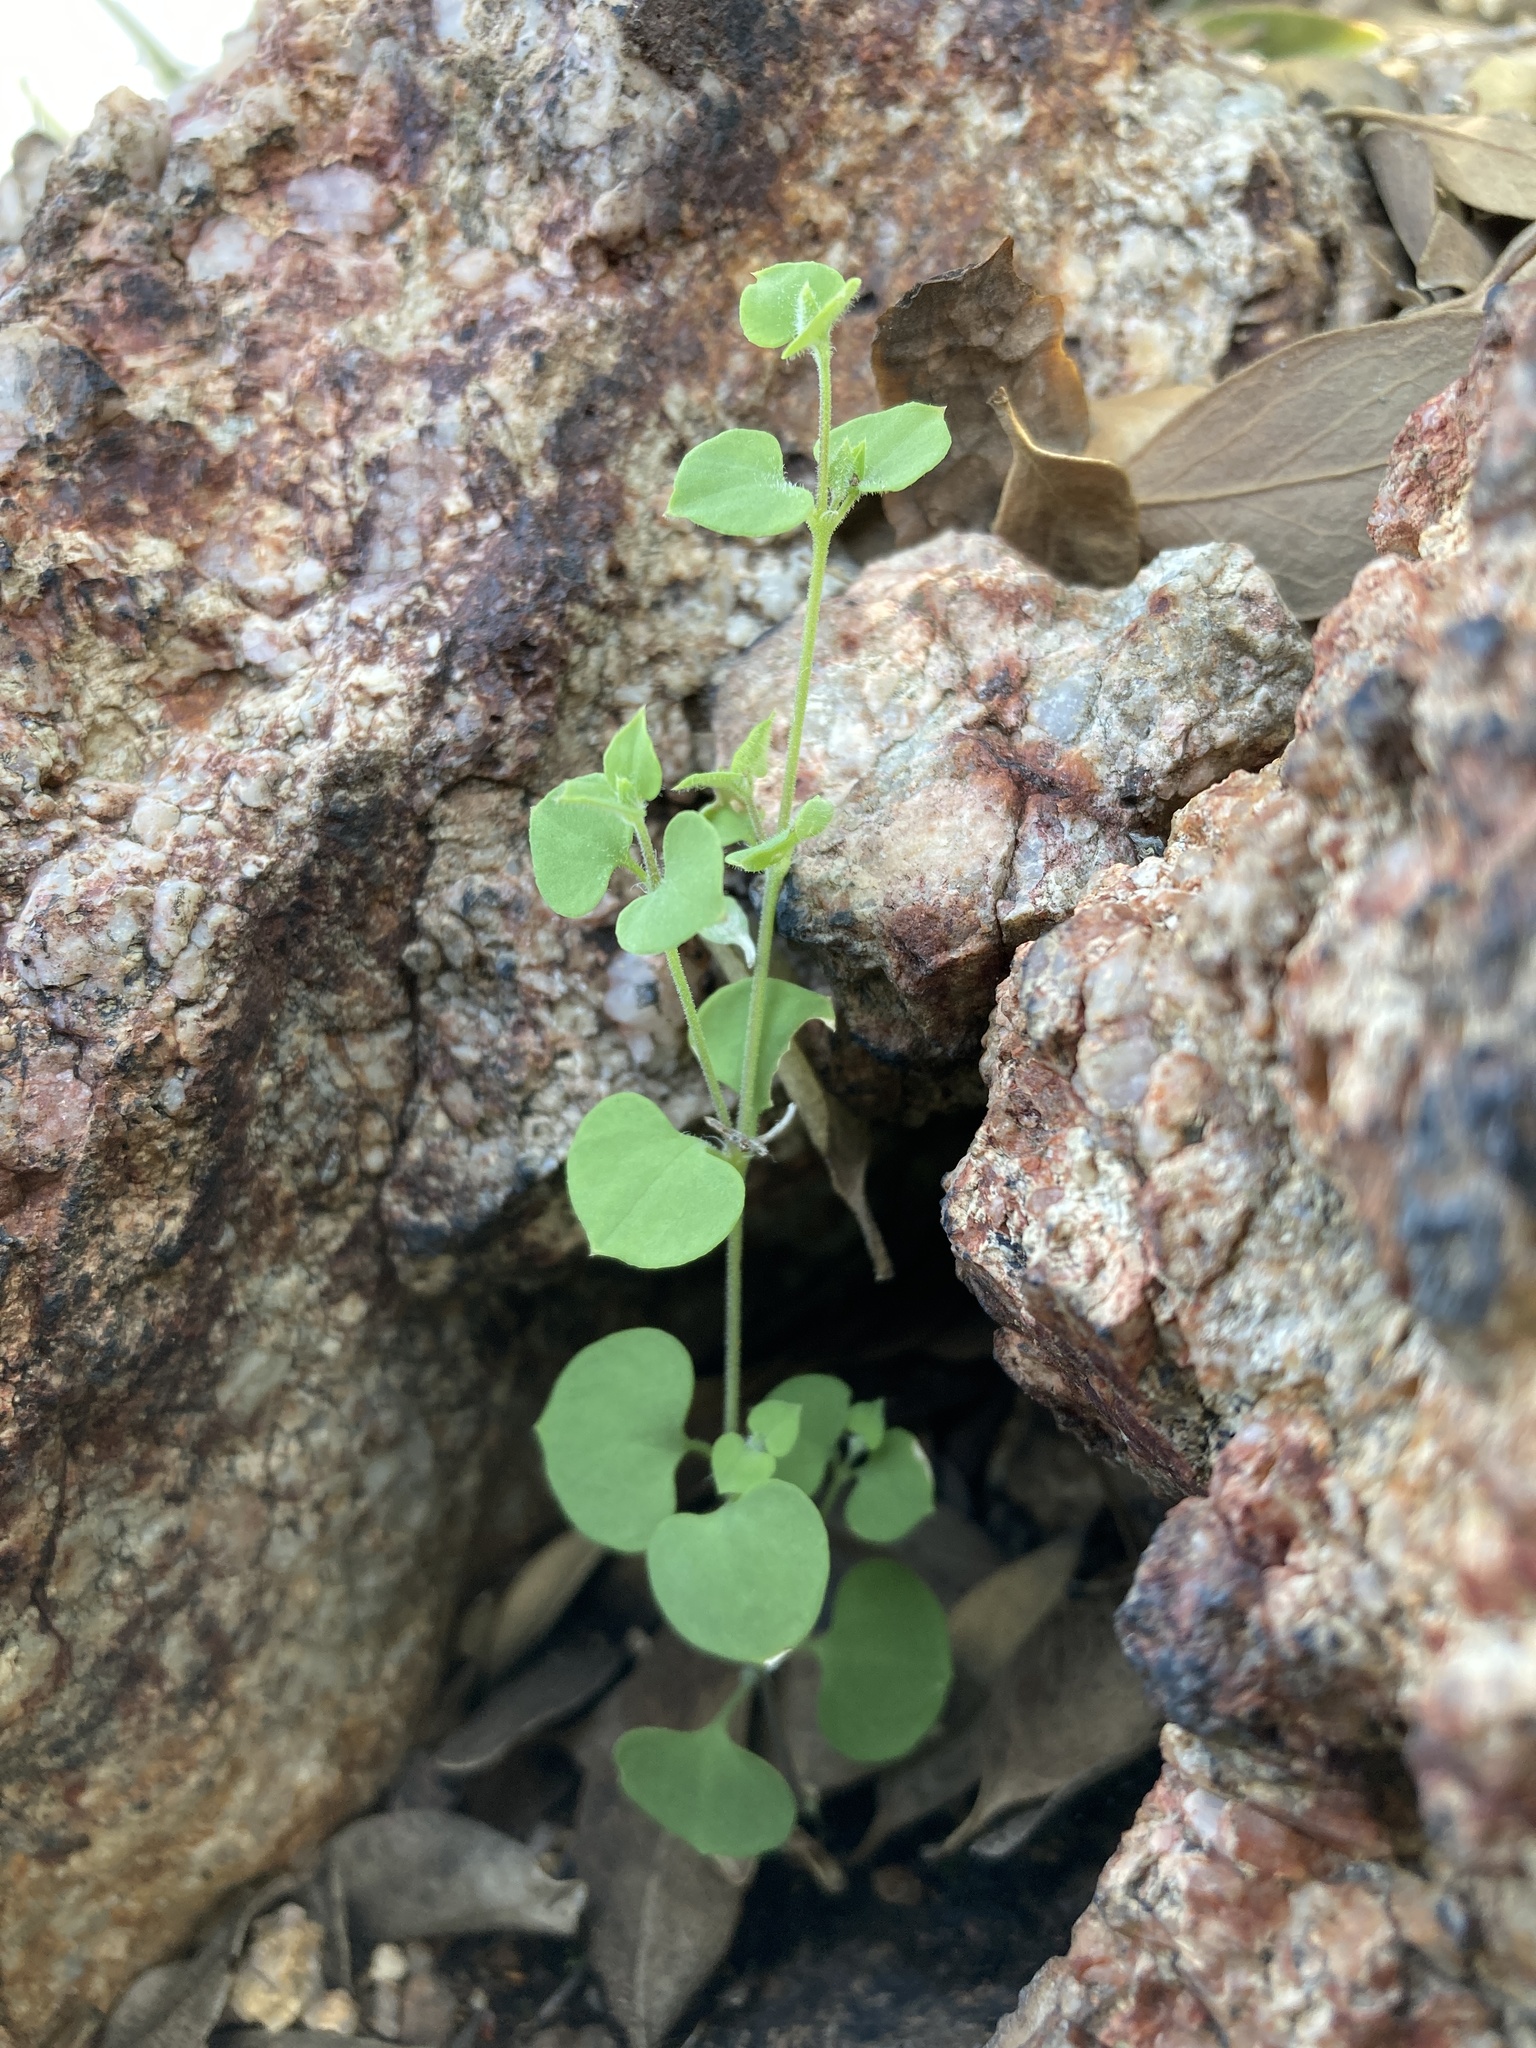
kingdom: Plantae
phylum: Tracheophyta
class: Magnoliopsida
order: Caryophyllales
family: Caryophyllaceae
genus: Drymaria
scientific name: Drymaria glandulosa
